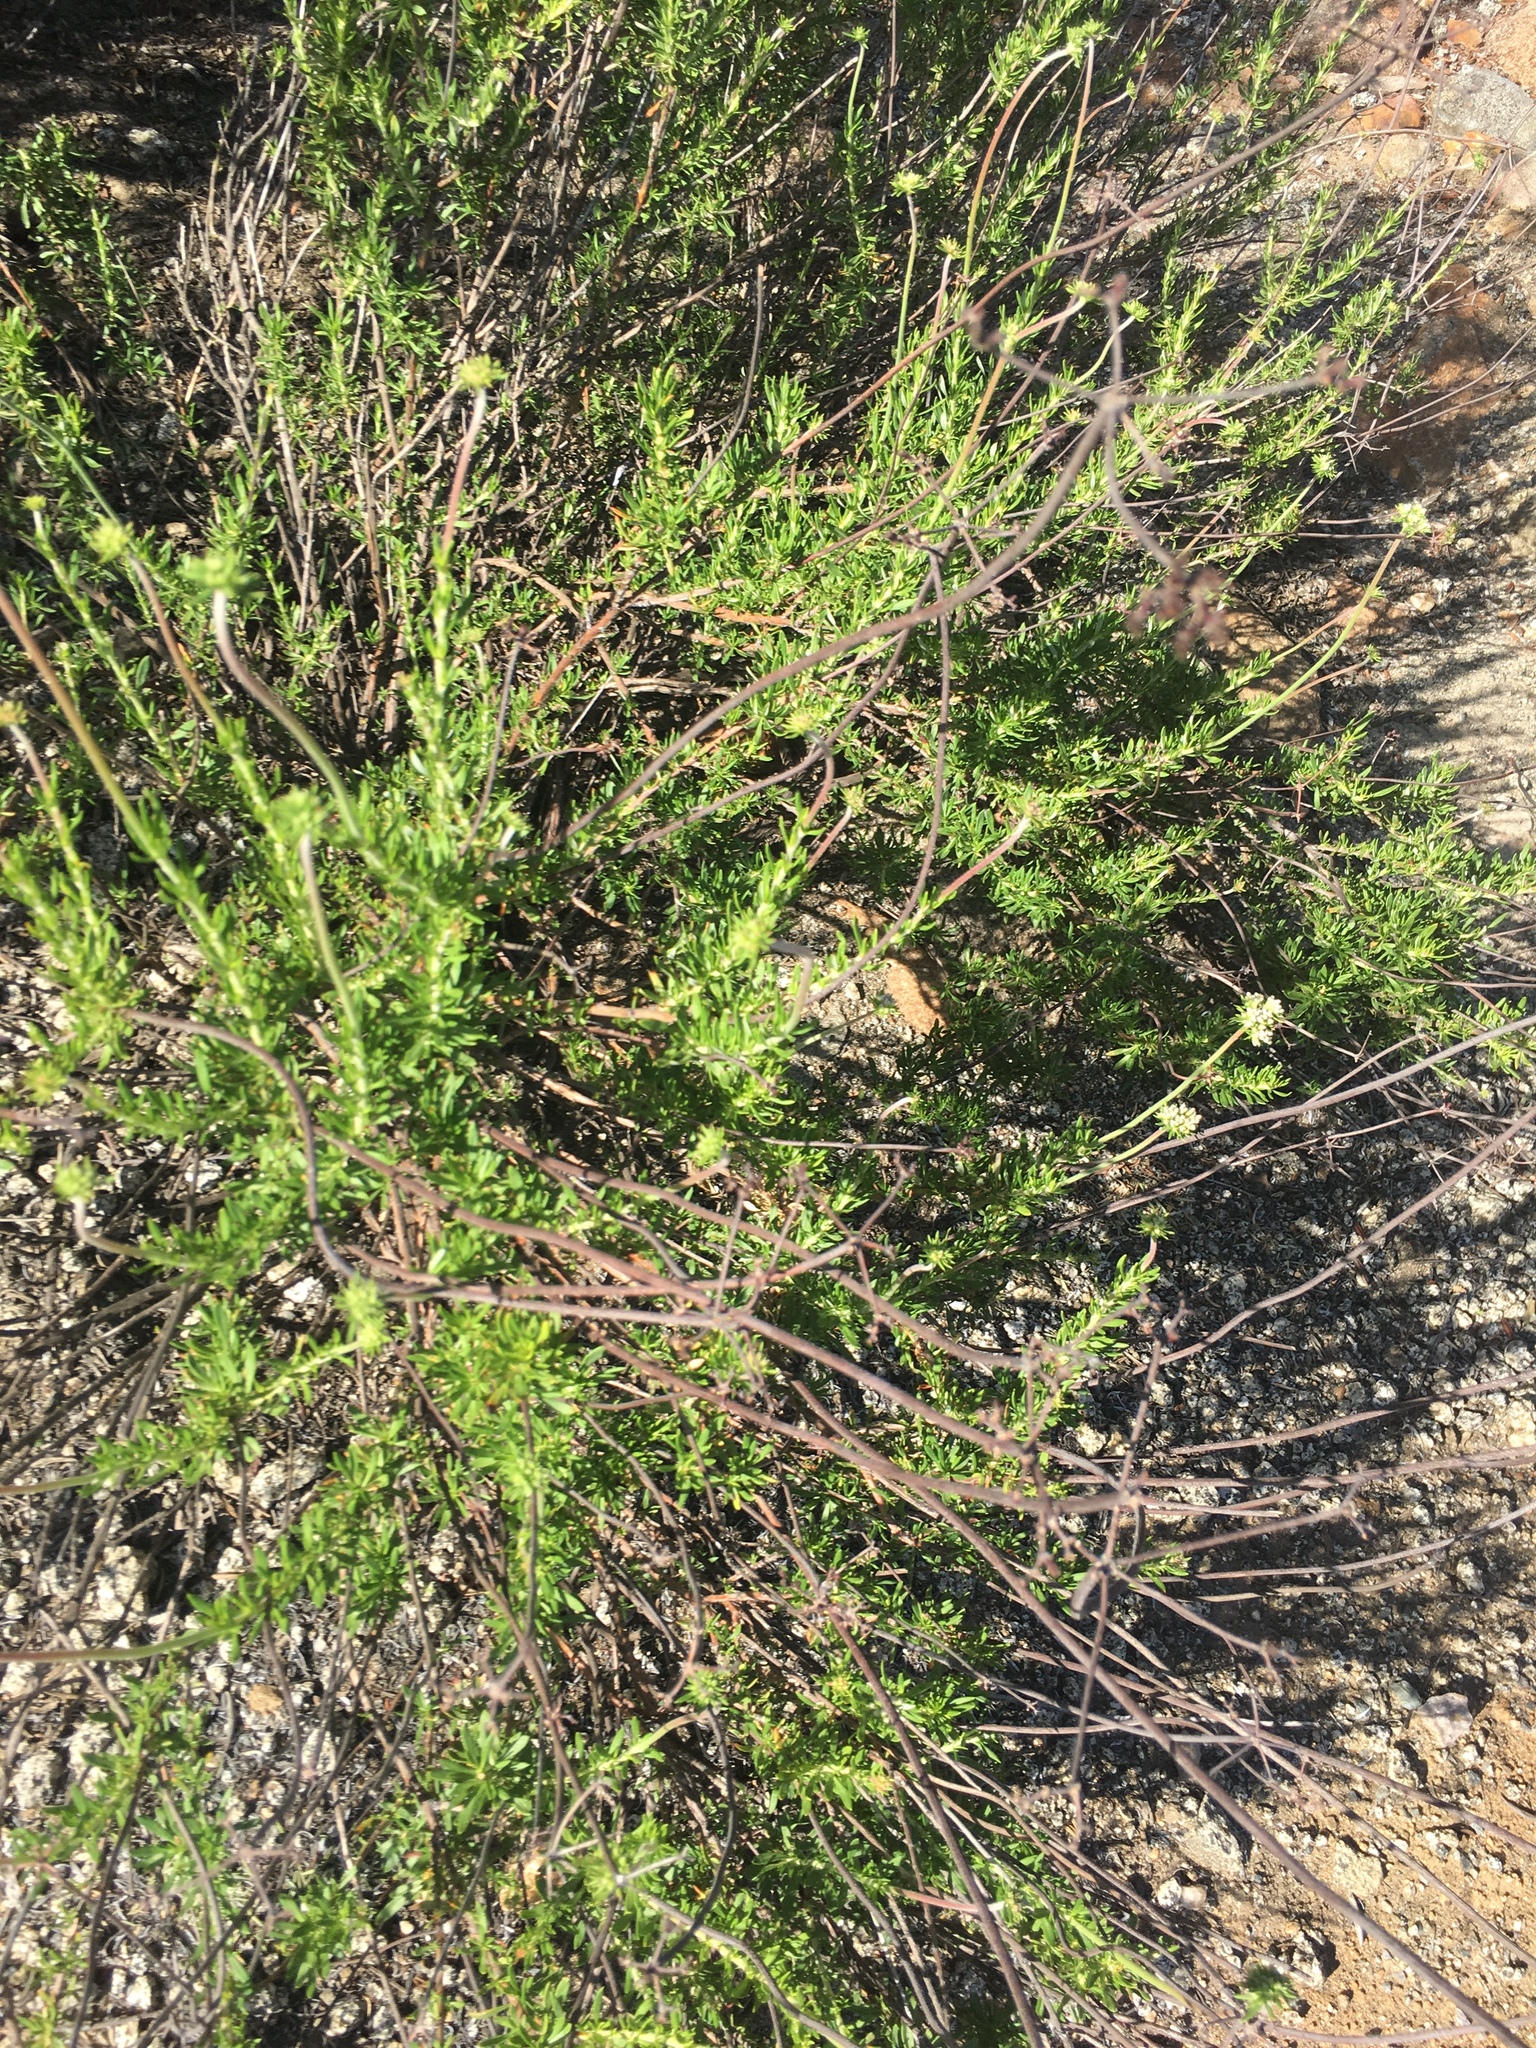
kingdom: Plantae
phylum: Tracheophyta
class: Magnoliopsida
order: Caryophyllales
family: Polygonaceae
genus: Eriogonum
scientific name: Eriogonum fasciculatum
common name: California wild buckwheat
